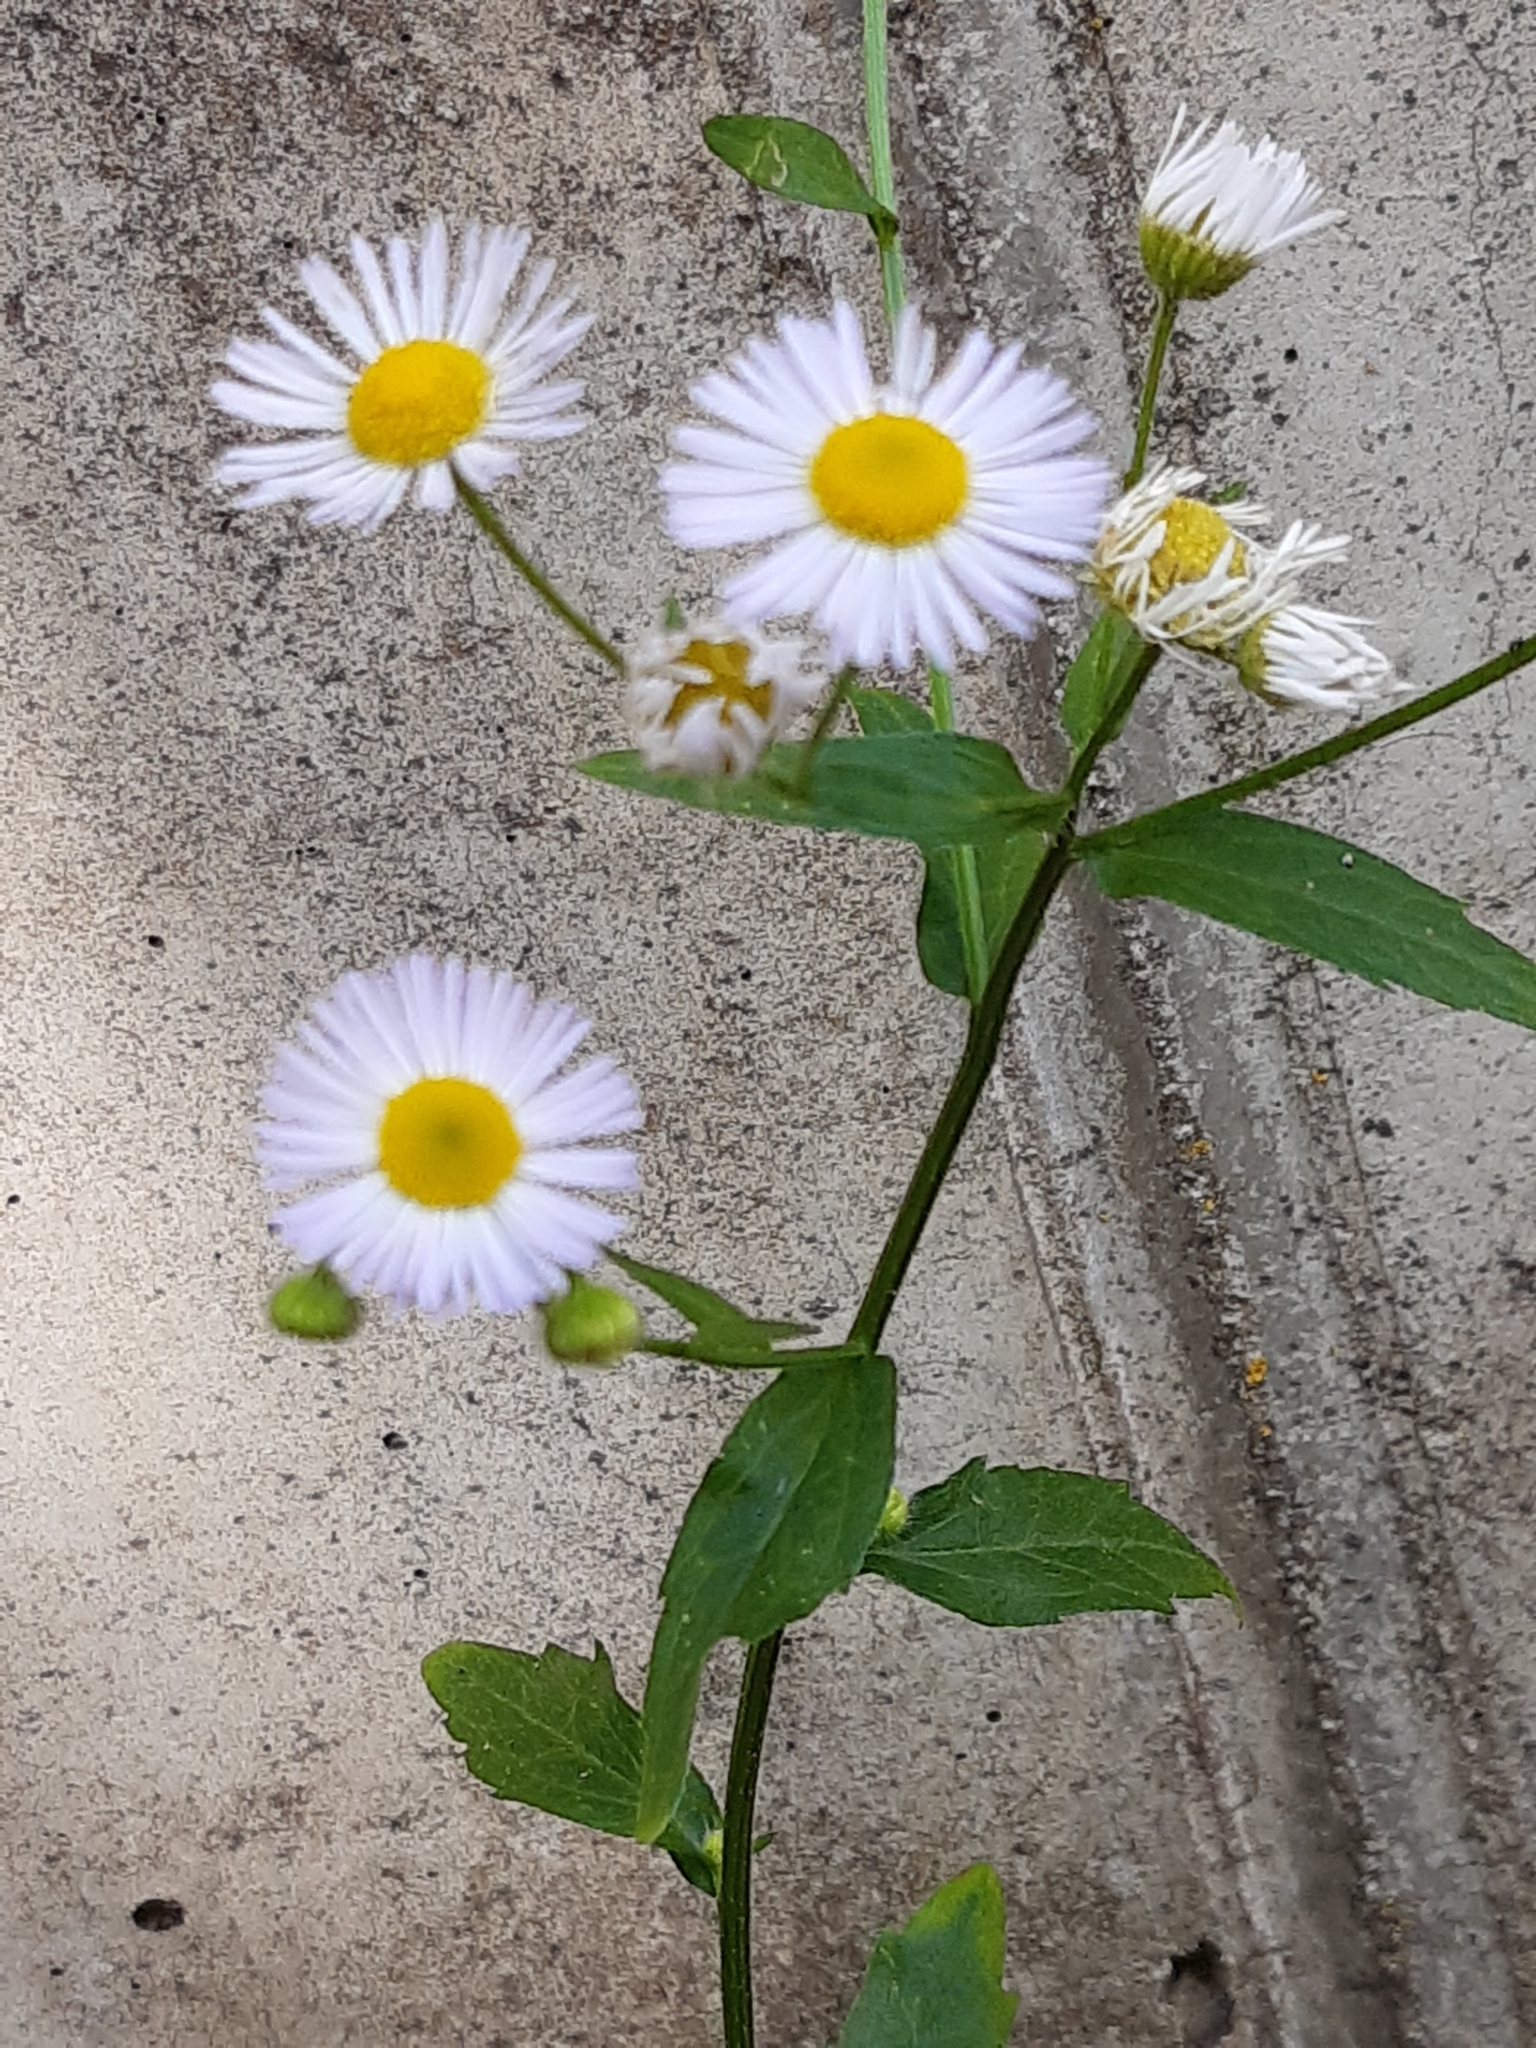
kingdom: Plantae
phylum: Tracheophyta
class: Magnoliopsida
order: Asterales
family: Asteraceae
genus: Erigeron
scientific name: Erigeron annuus
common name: Tall fleabane
